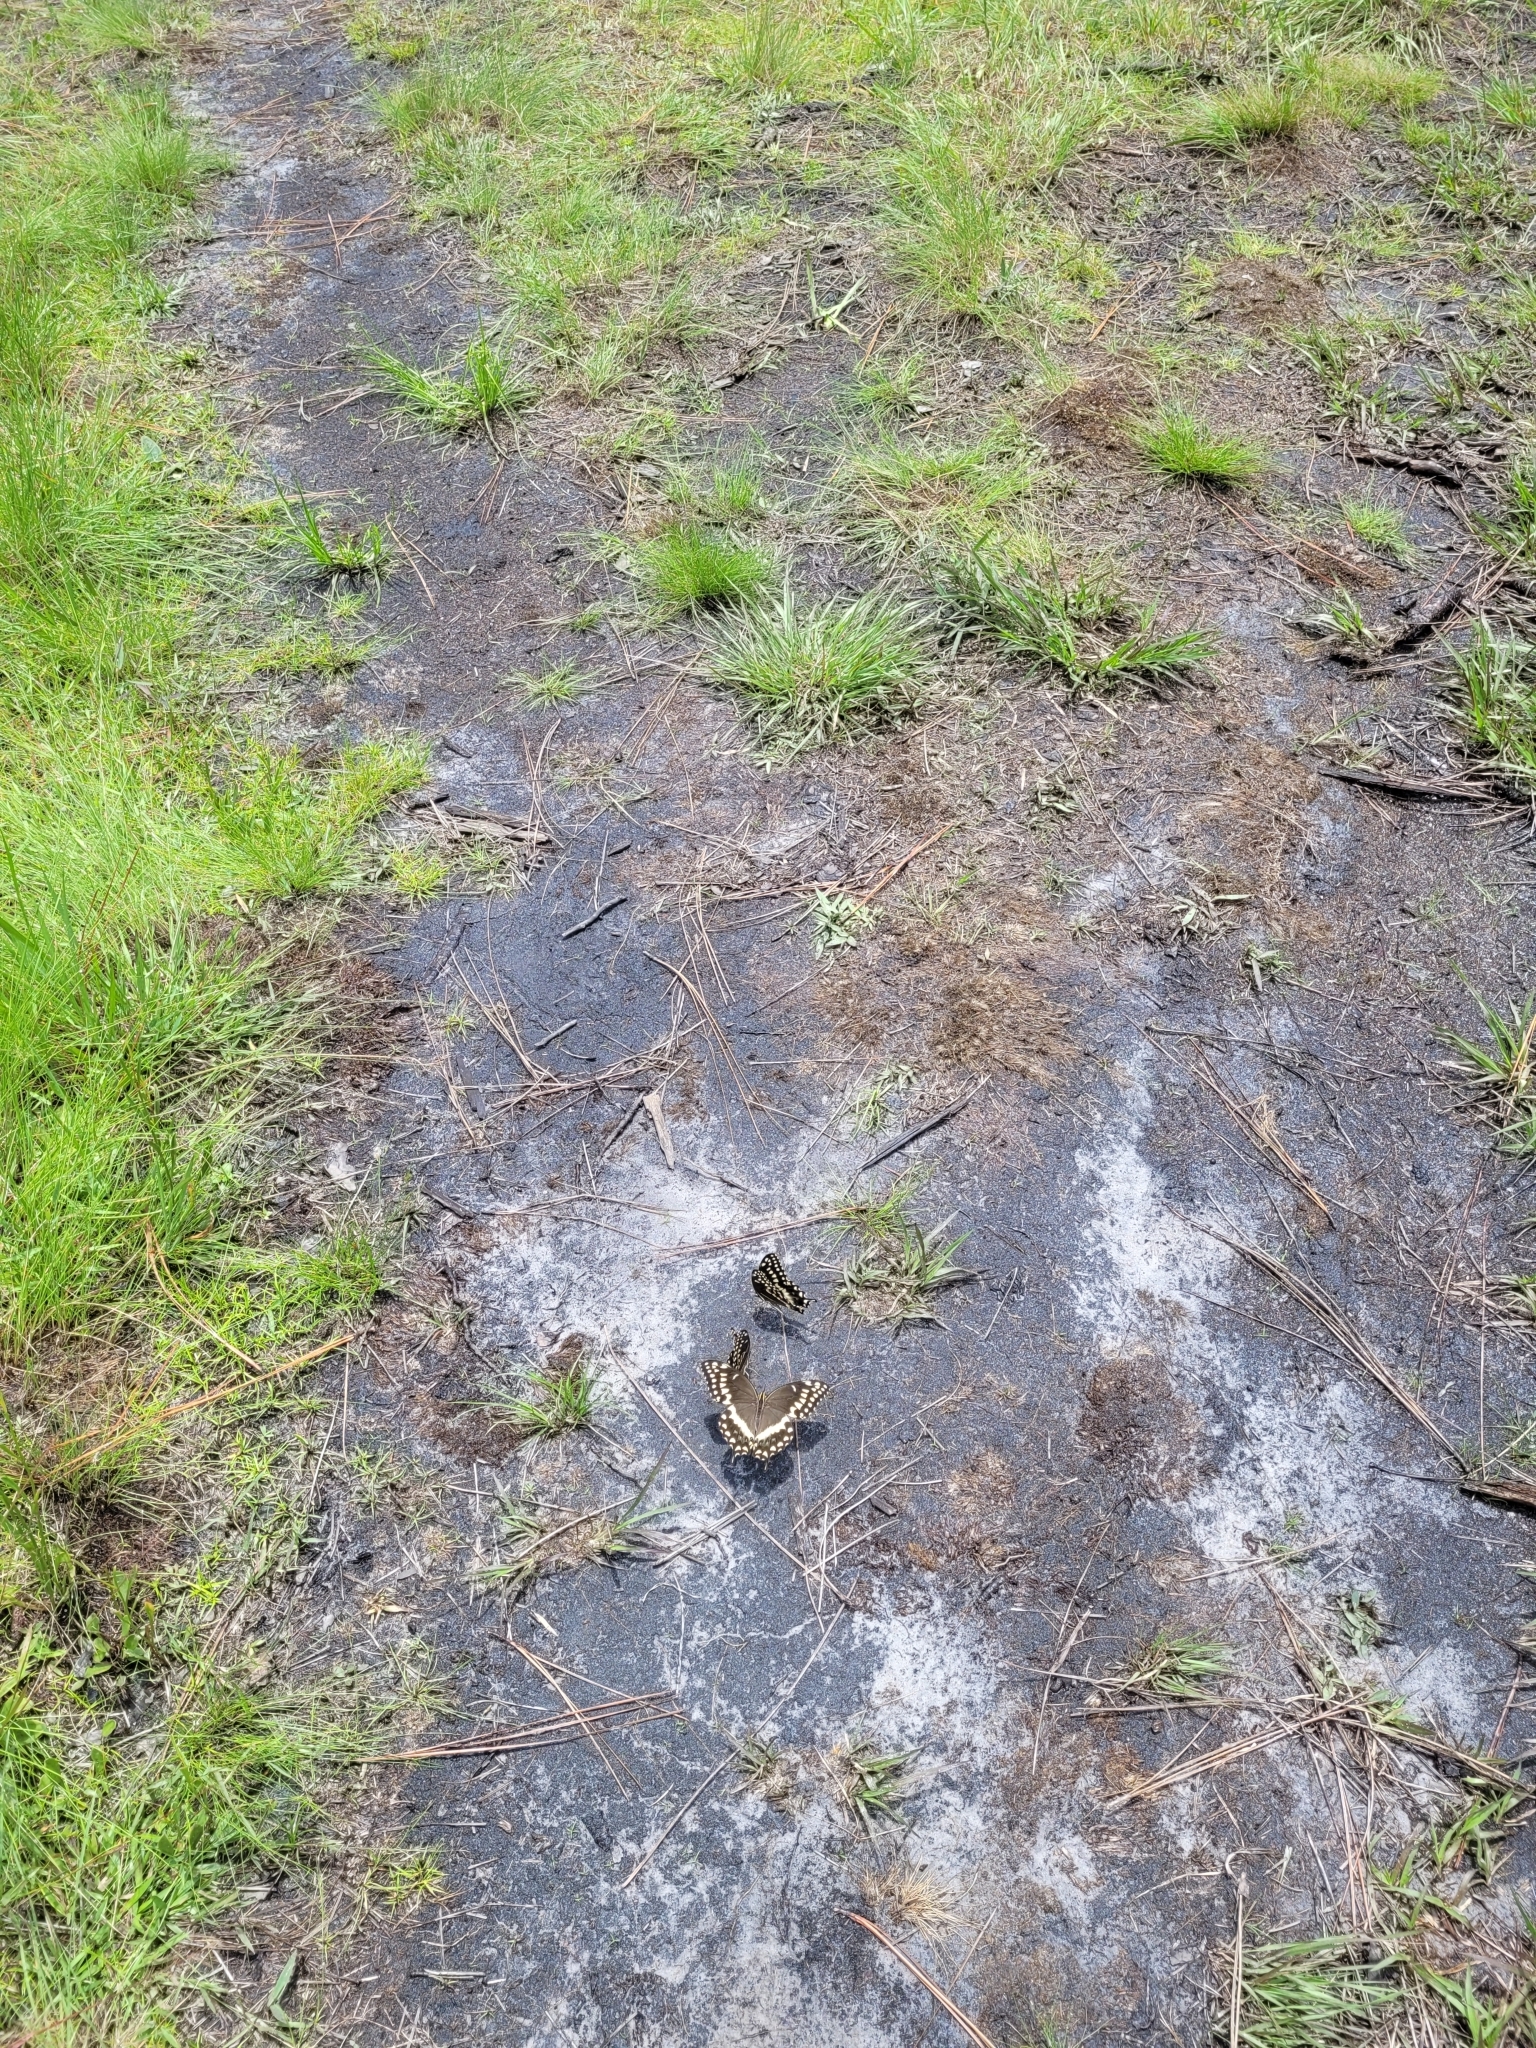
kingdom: Animalia
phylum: Arthropoda
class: Insecta
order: Lepidoptera
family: Papilionidae
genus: Papilio
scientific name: Papilio palamedes
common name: Palamedes swallowtail
